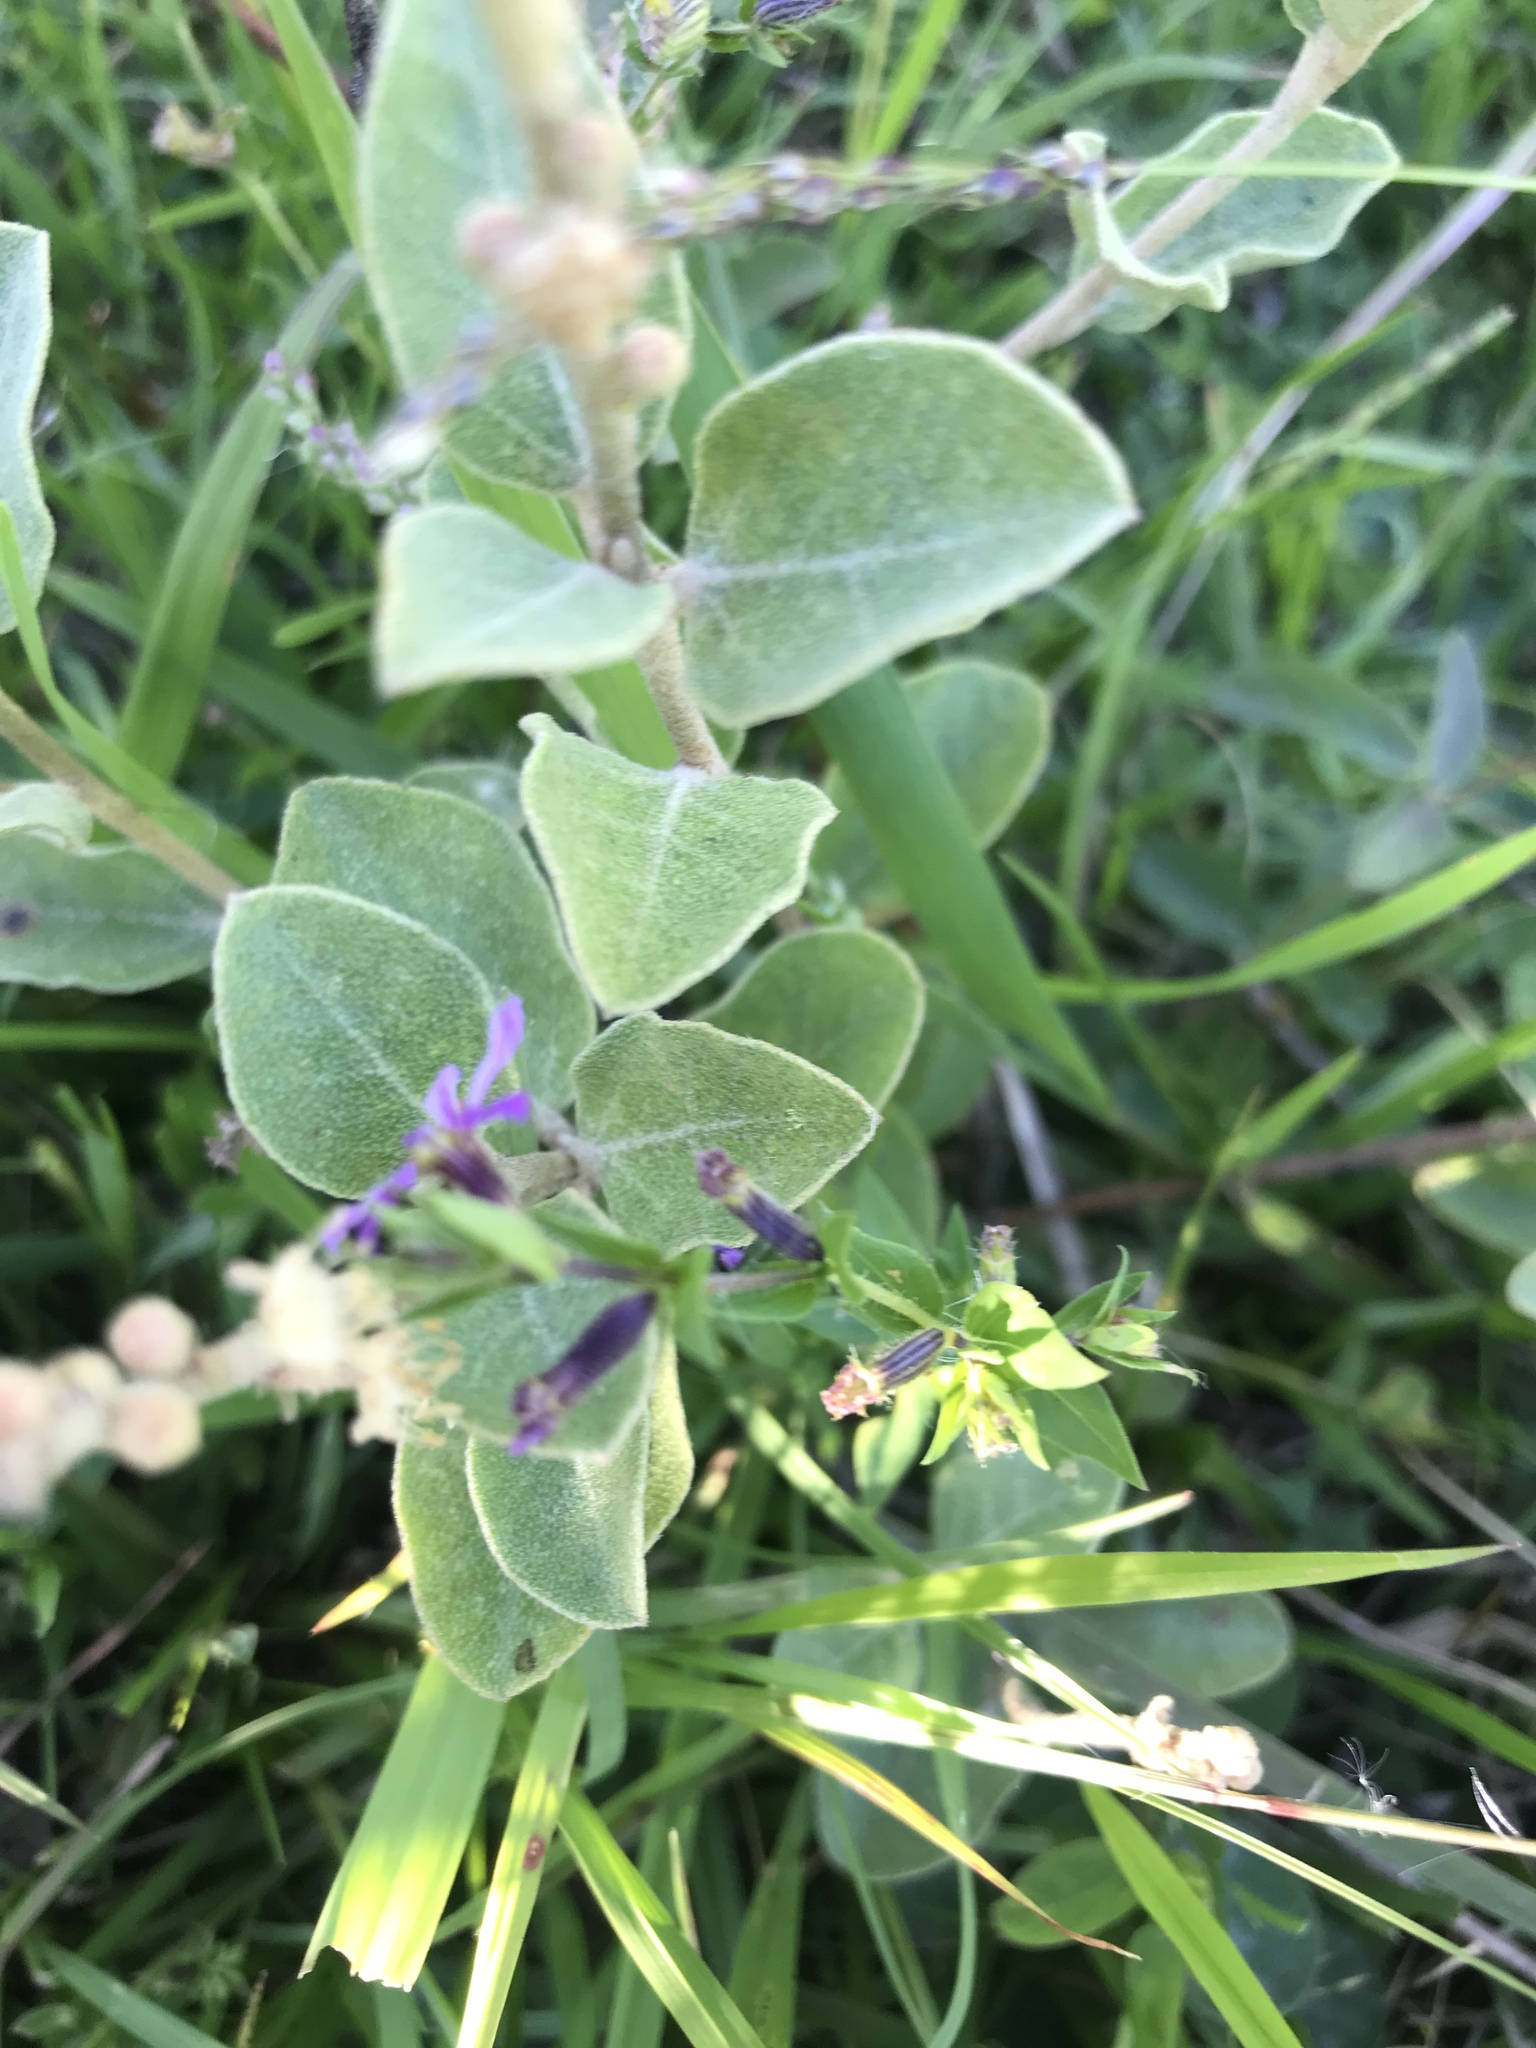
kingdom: Plantae
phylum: Tracheophyta
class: Magnoliopsida
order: Malpighiales
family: Euphorbiaceae
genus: Croton
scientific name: Croton lanatus
